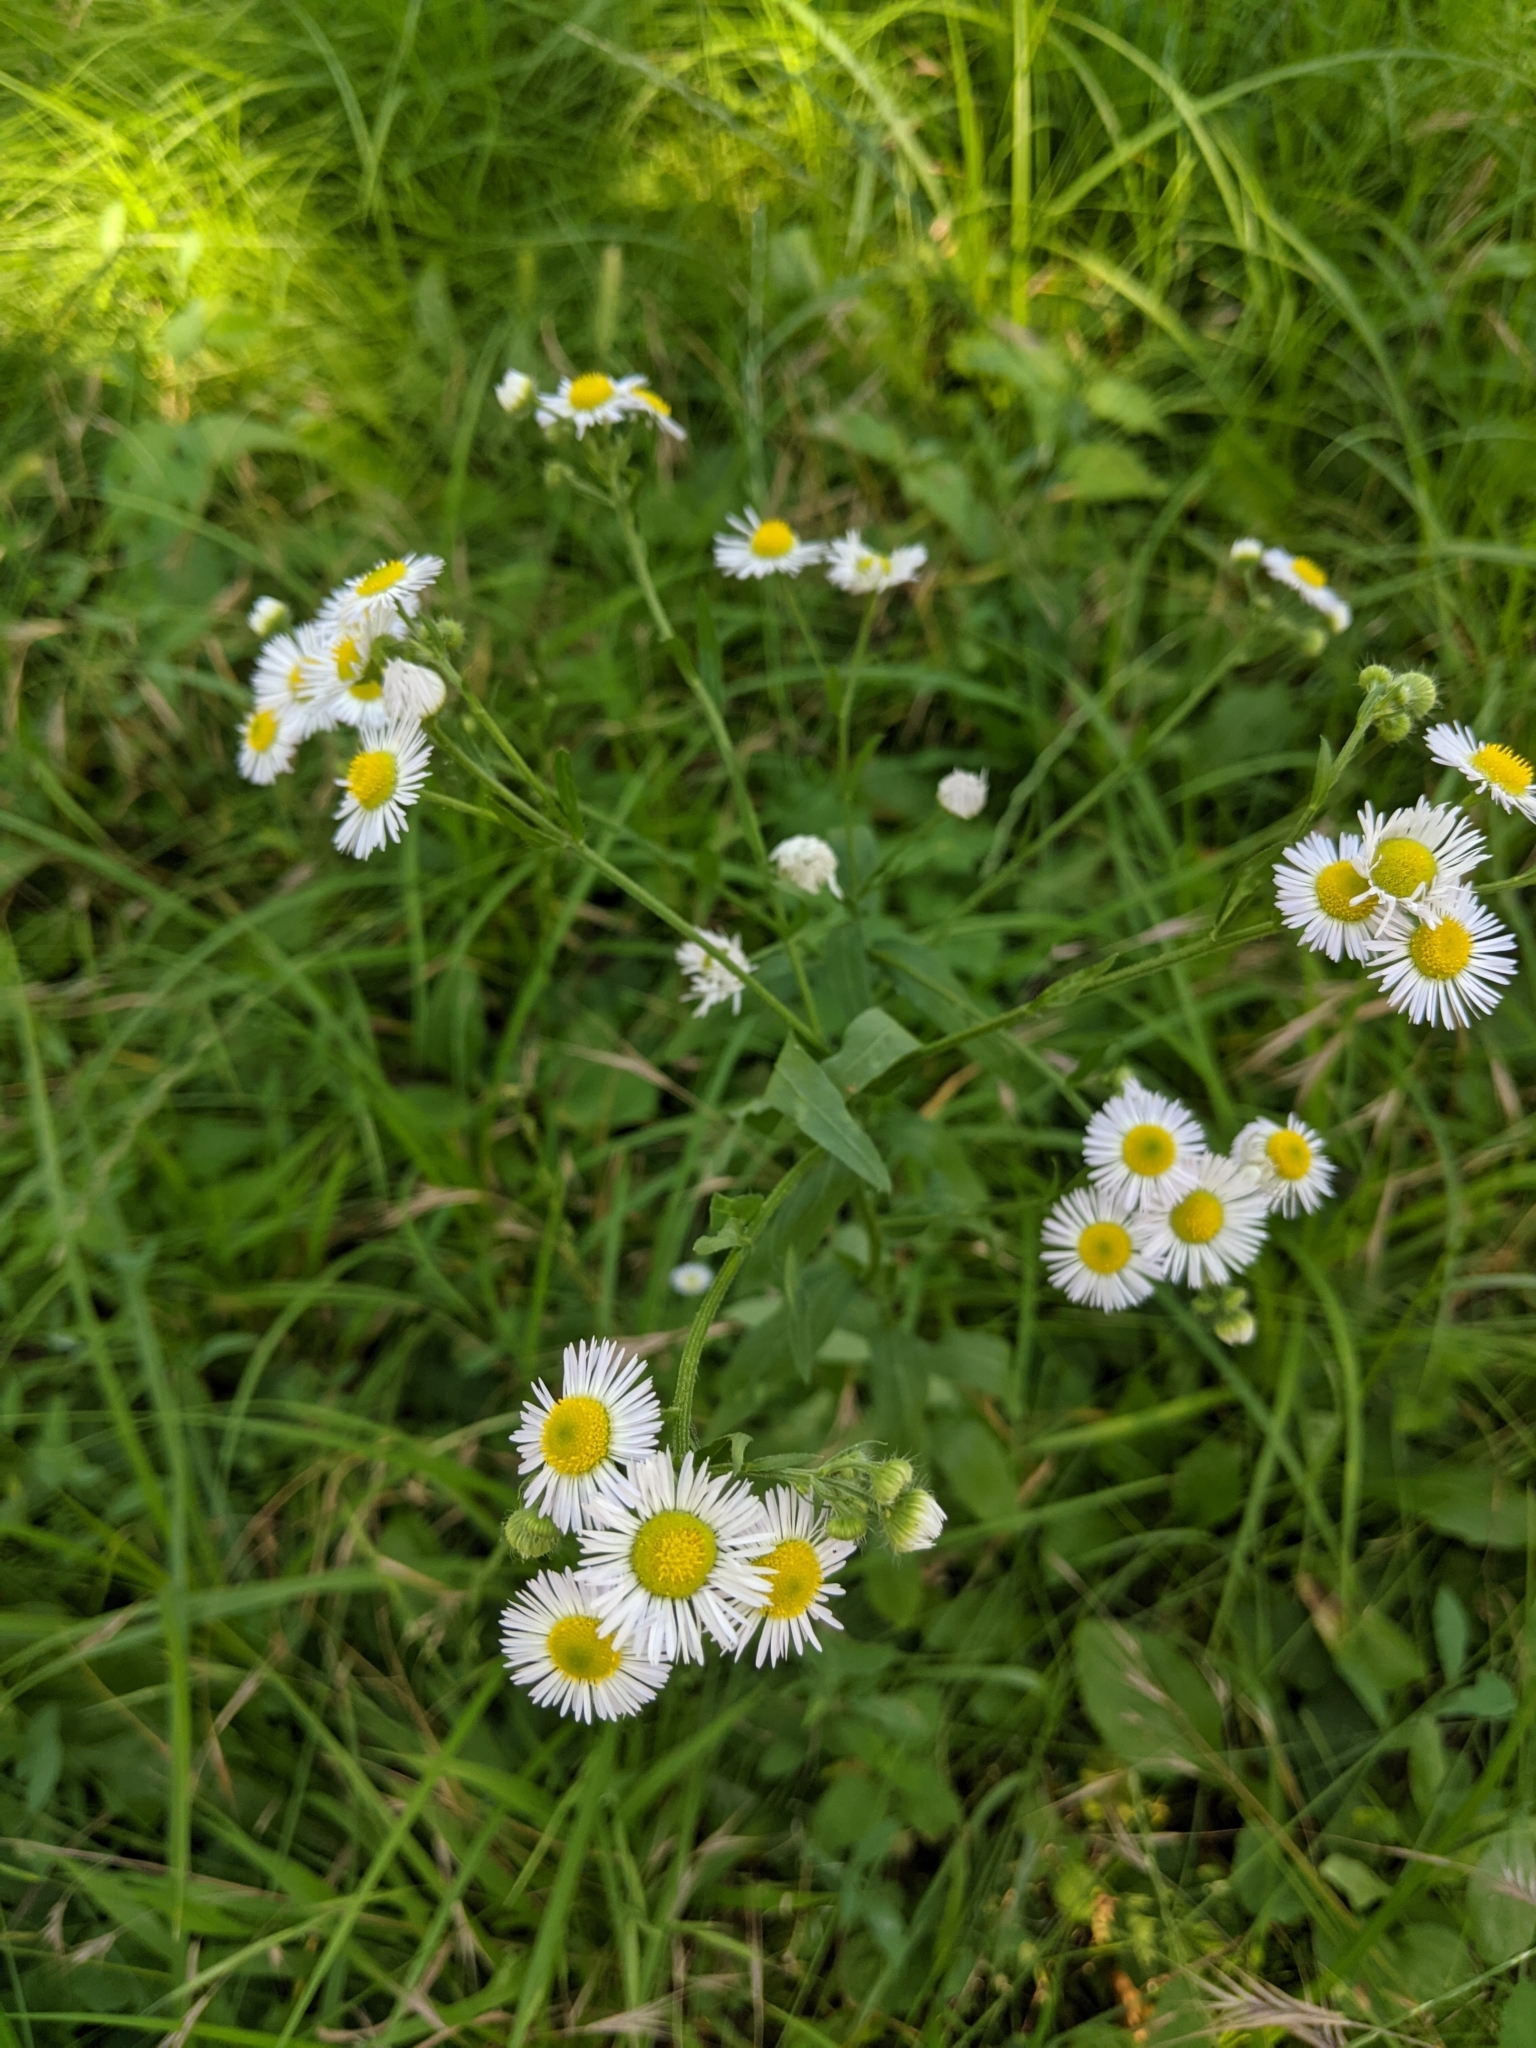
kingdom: Plantae
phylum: Tracheophyta
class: Magnoliopsida
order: Asterales
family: Asteraceae
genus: Erigeron
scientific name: Erigeron annuus
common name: Tall fleabane
